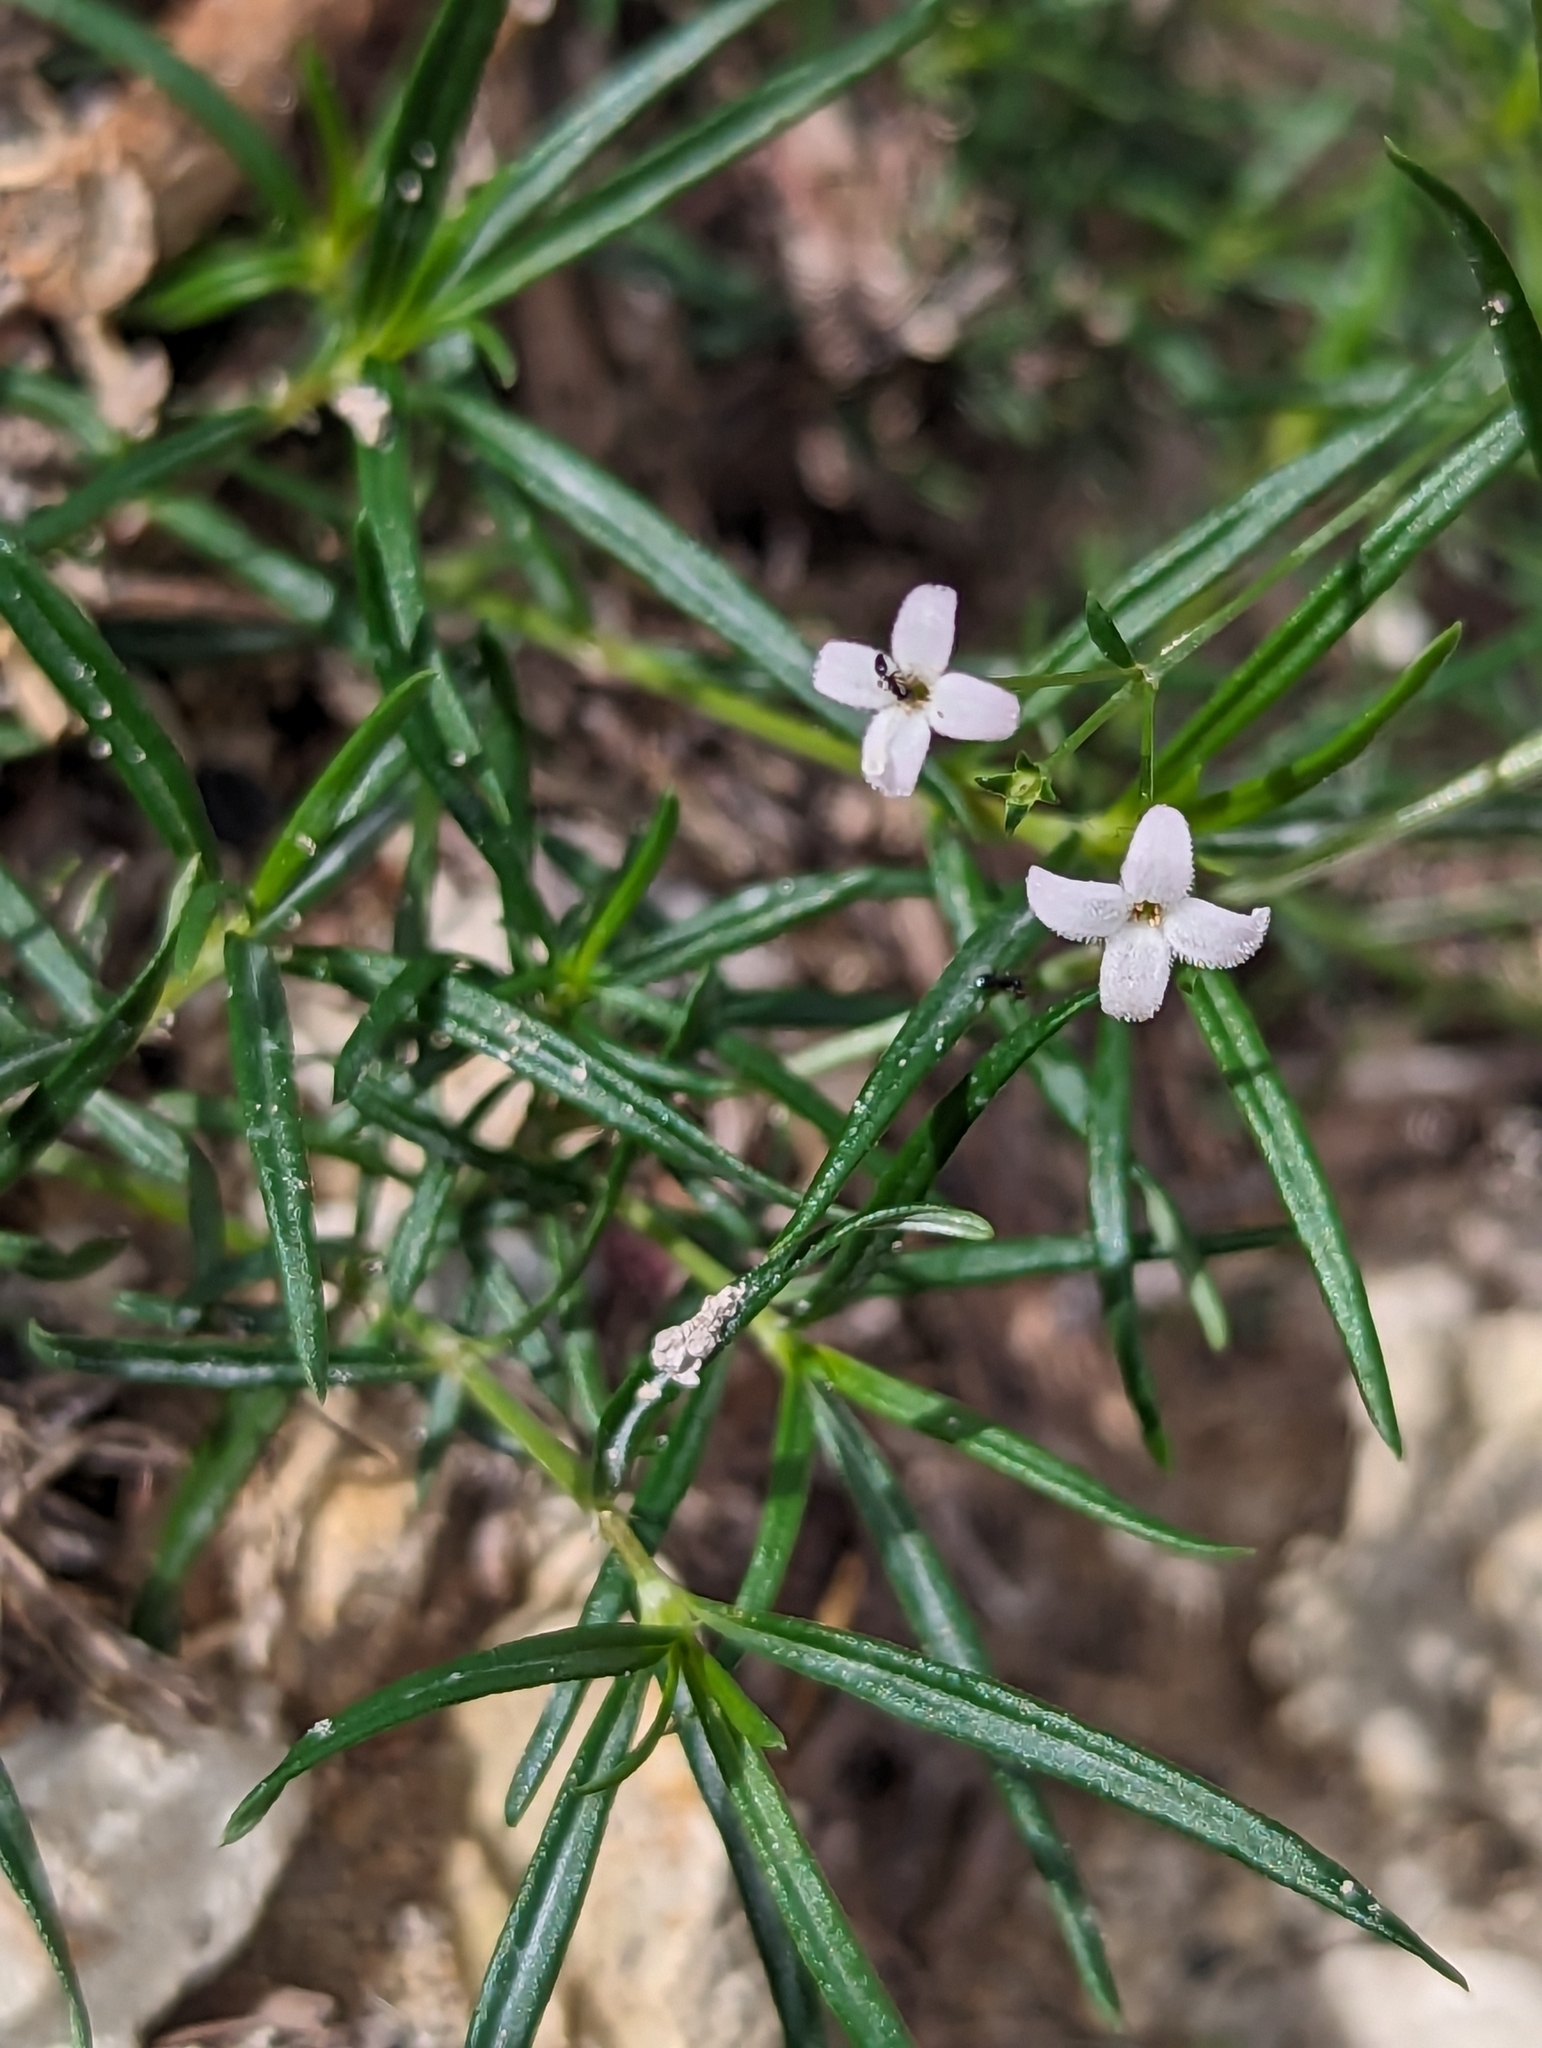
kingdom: Plantae
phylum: Tracheophyta
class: Magnoliopsida
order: Gentianales
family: Rubiaceae
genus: Stenaria
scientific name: Stenaria nigricans
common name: Diamondflowers
